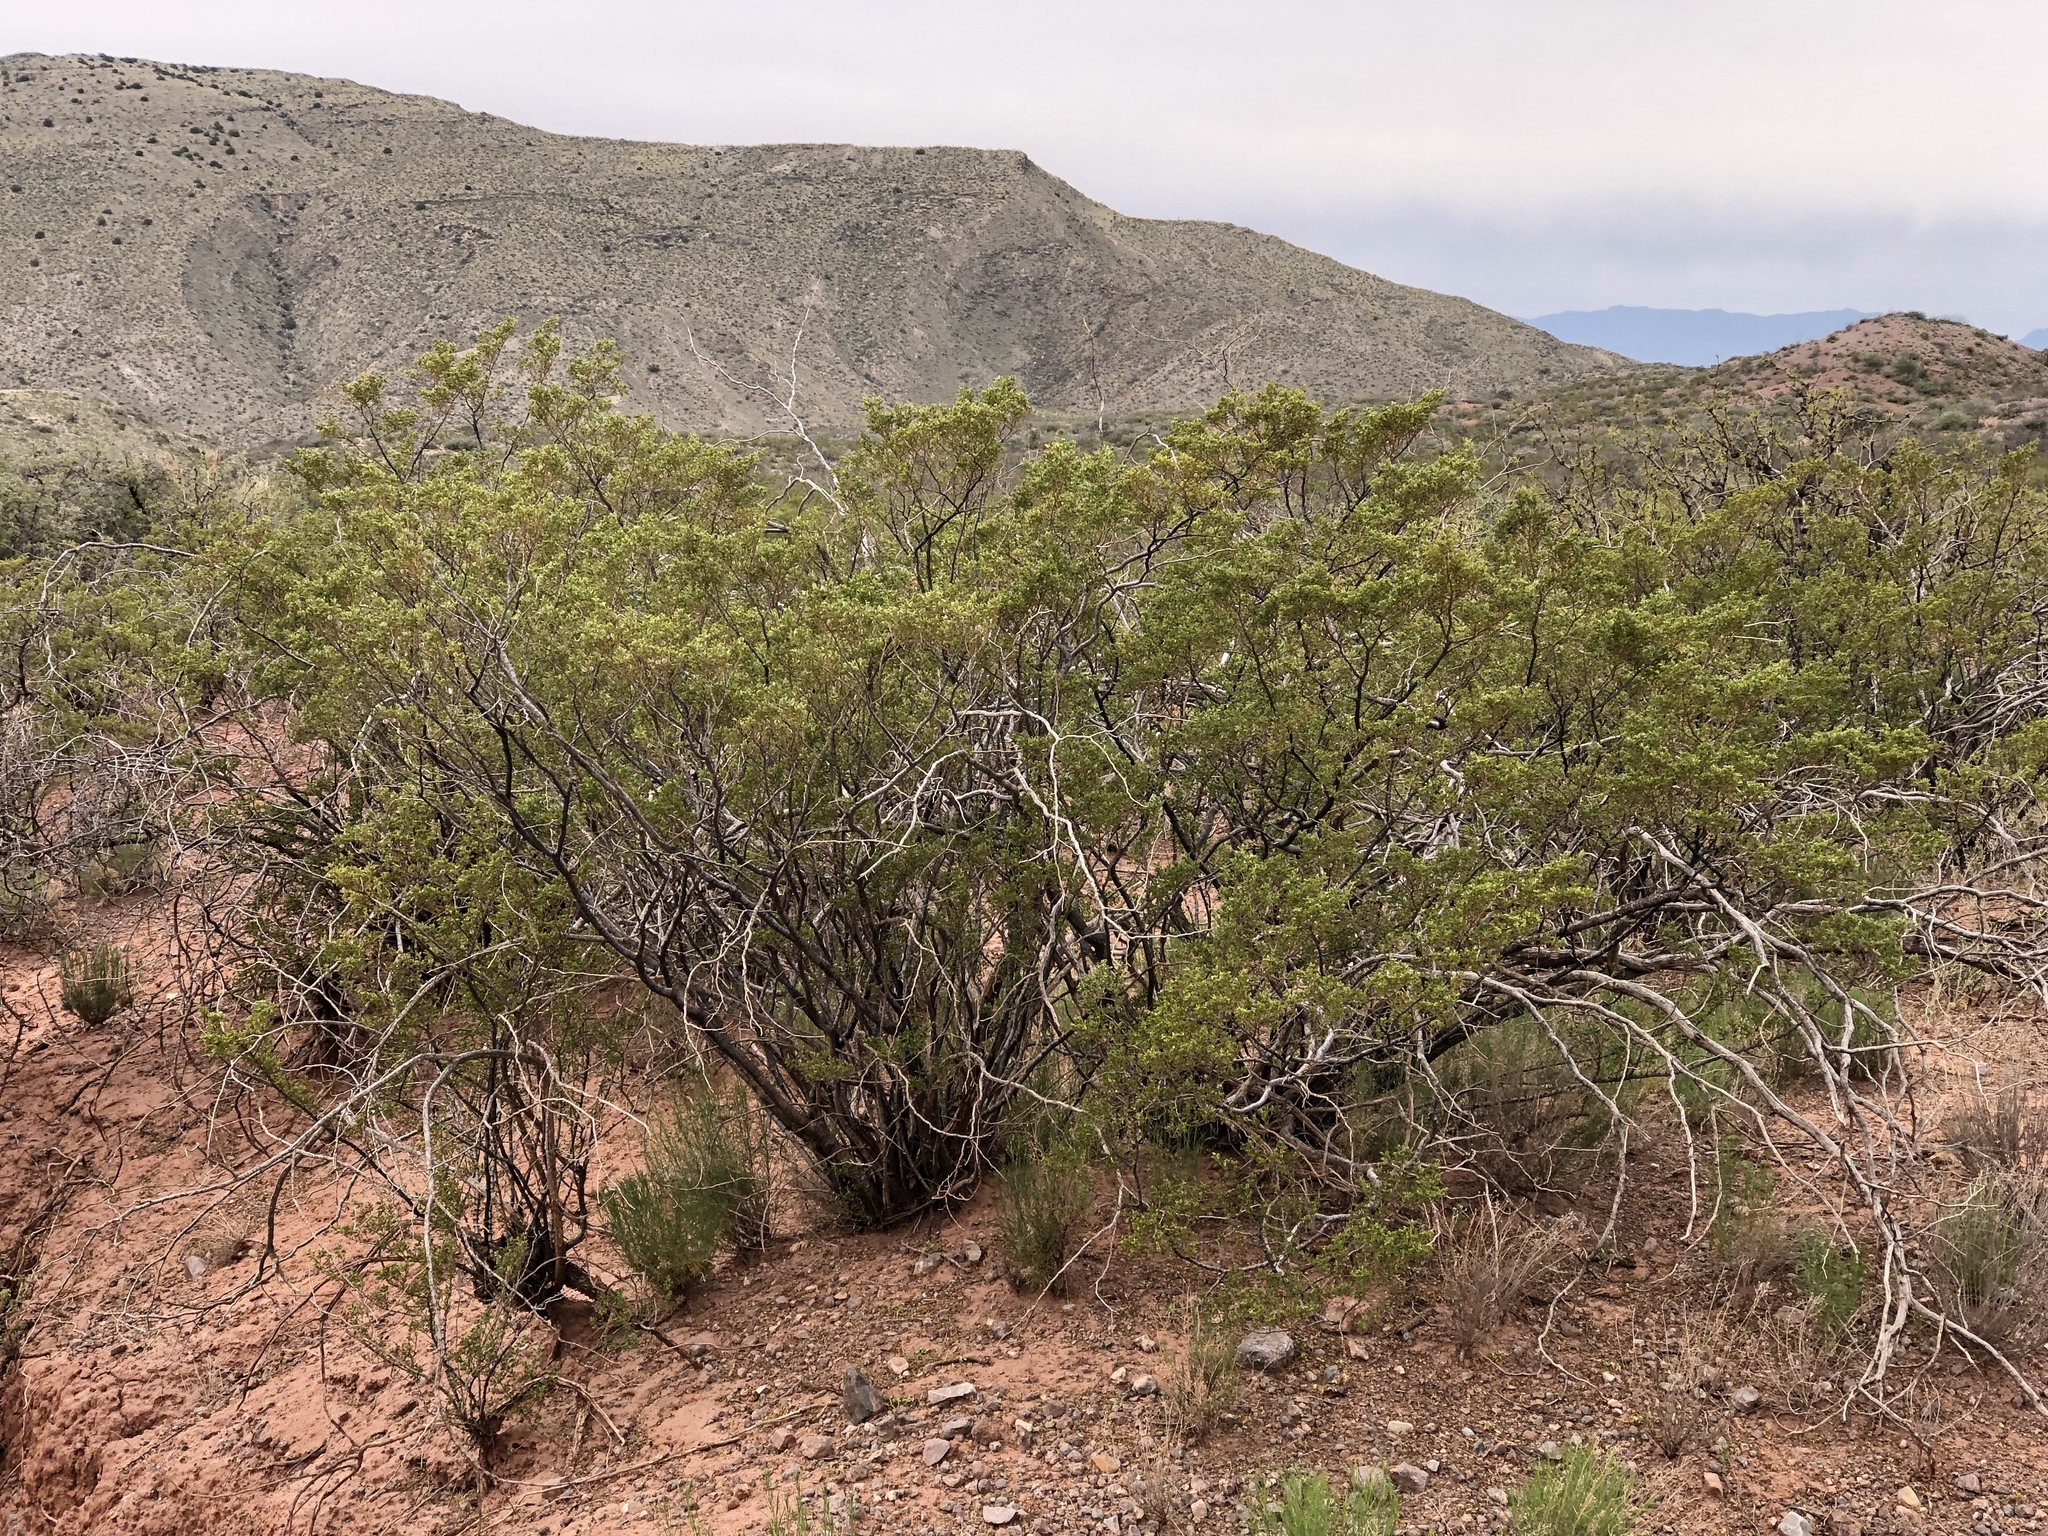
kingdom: Plantae
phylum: Tracheophyta
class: Magnoliopsida
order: Zygophyllales
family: Zygophyllaceae
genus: Larrea
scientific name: Larrea tridentata
